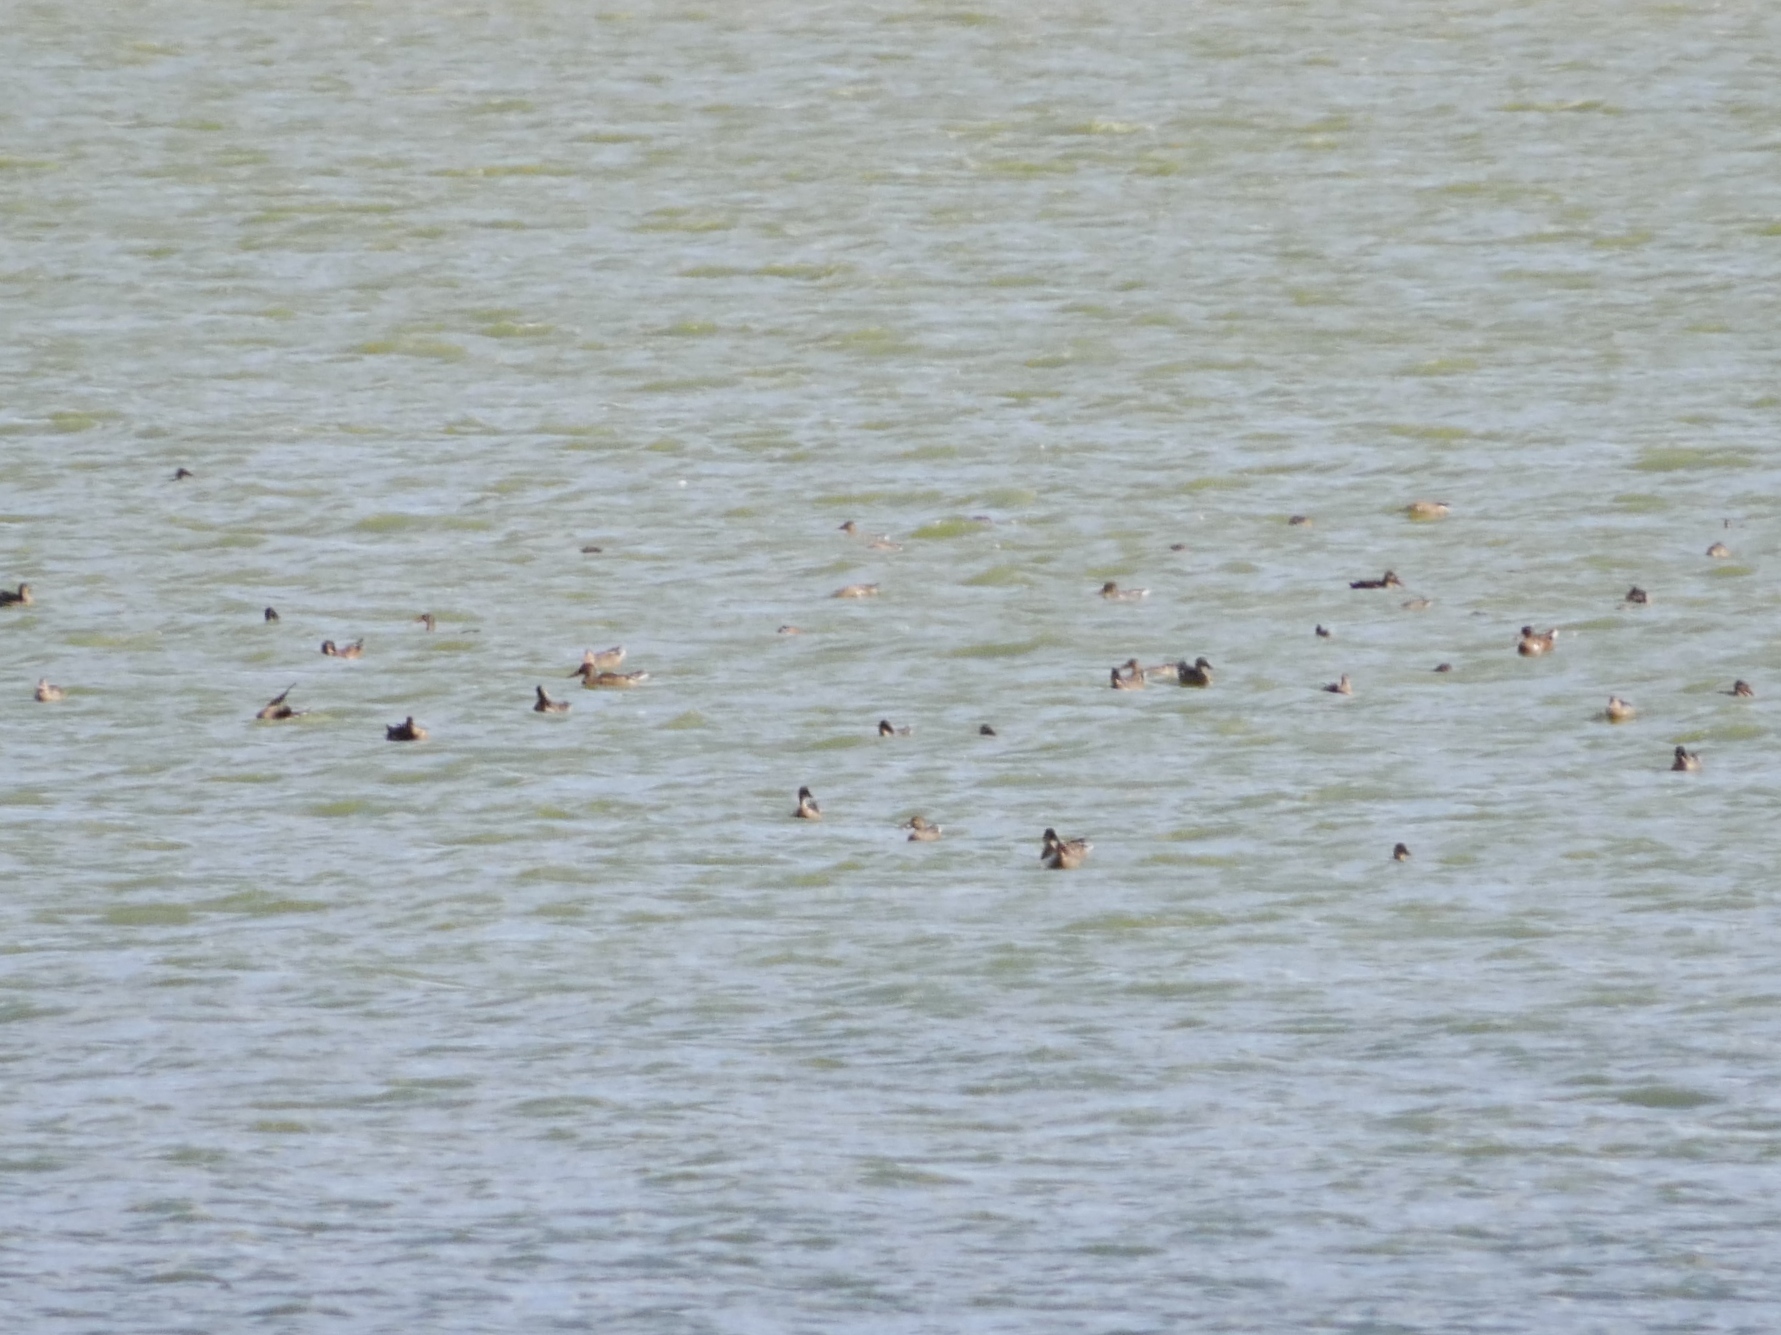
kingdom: Animalia
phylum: Chordata
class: Aves
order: Anseriformes
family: Anatidae
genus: Anas
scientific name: Anas platyrhynchos
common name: Mallard
